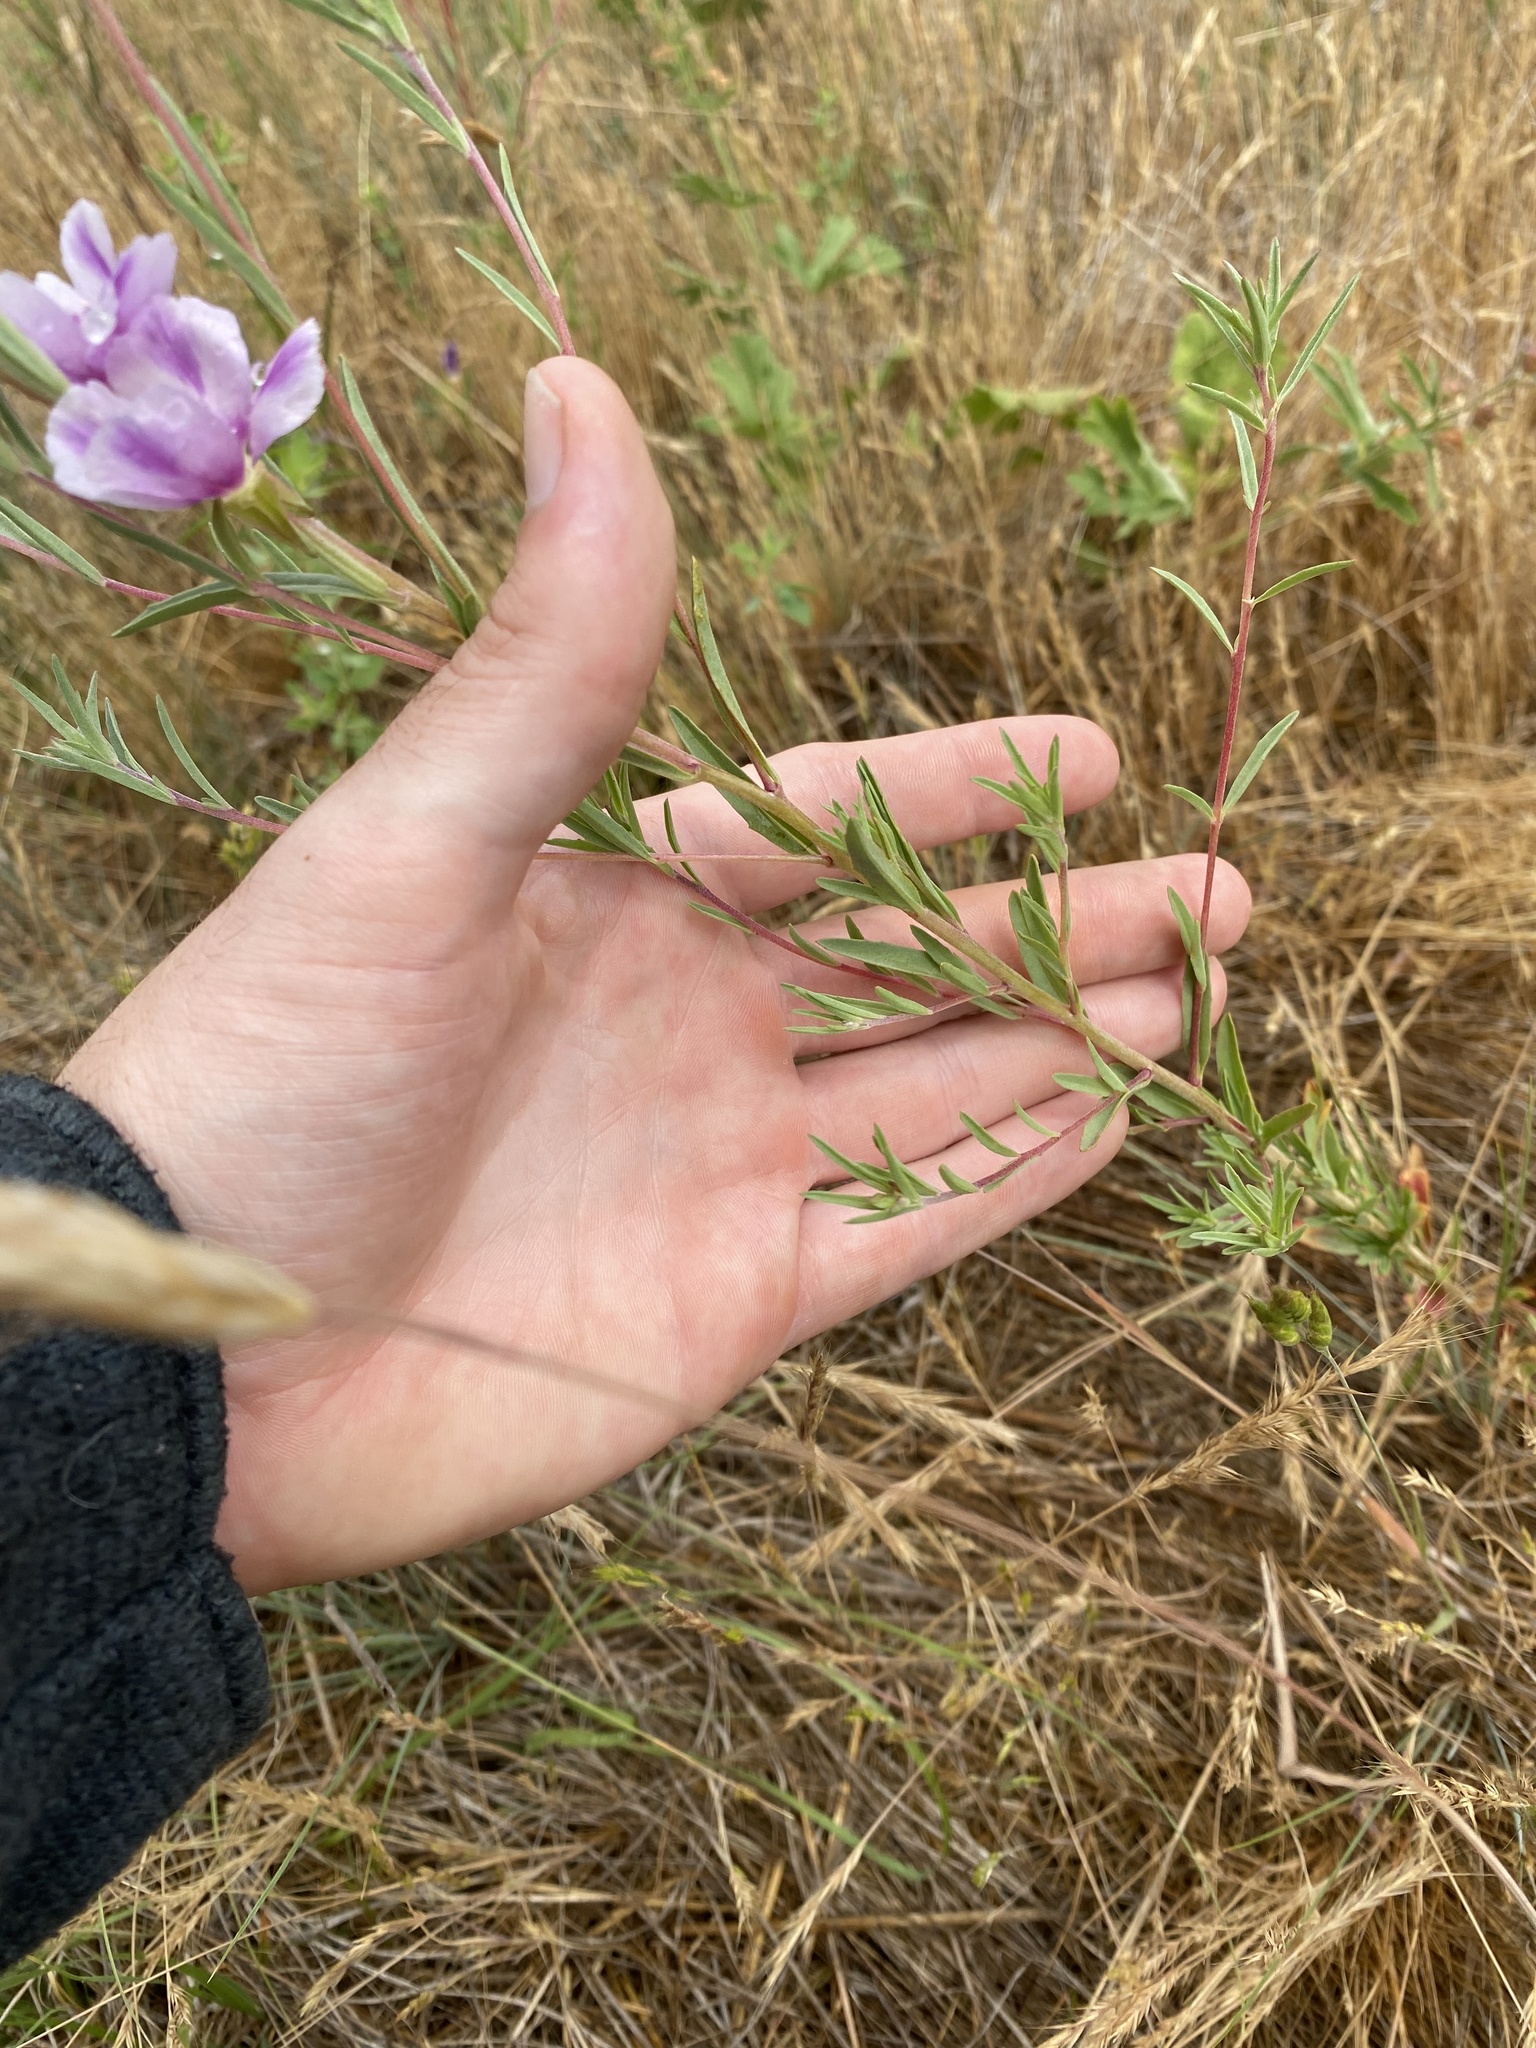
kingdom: Plantae
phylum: Tracheophyta
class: Magnoliopsida
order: Myrtales
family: Onagraceae
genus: Clarkia
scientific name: Clarkia purpurea
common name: Purple clarkia
